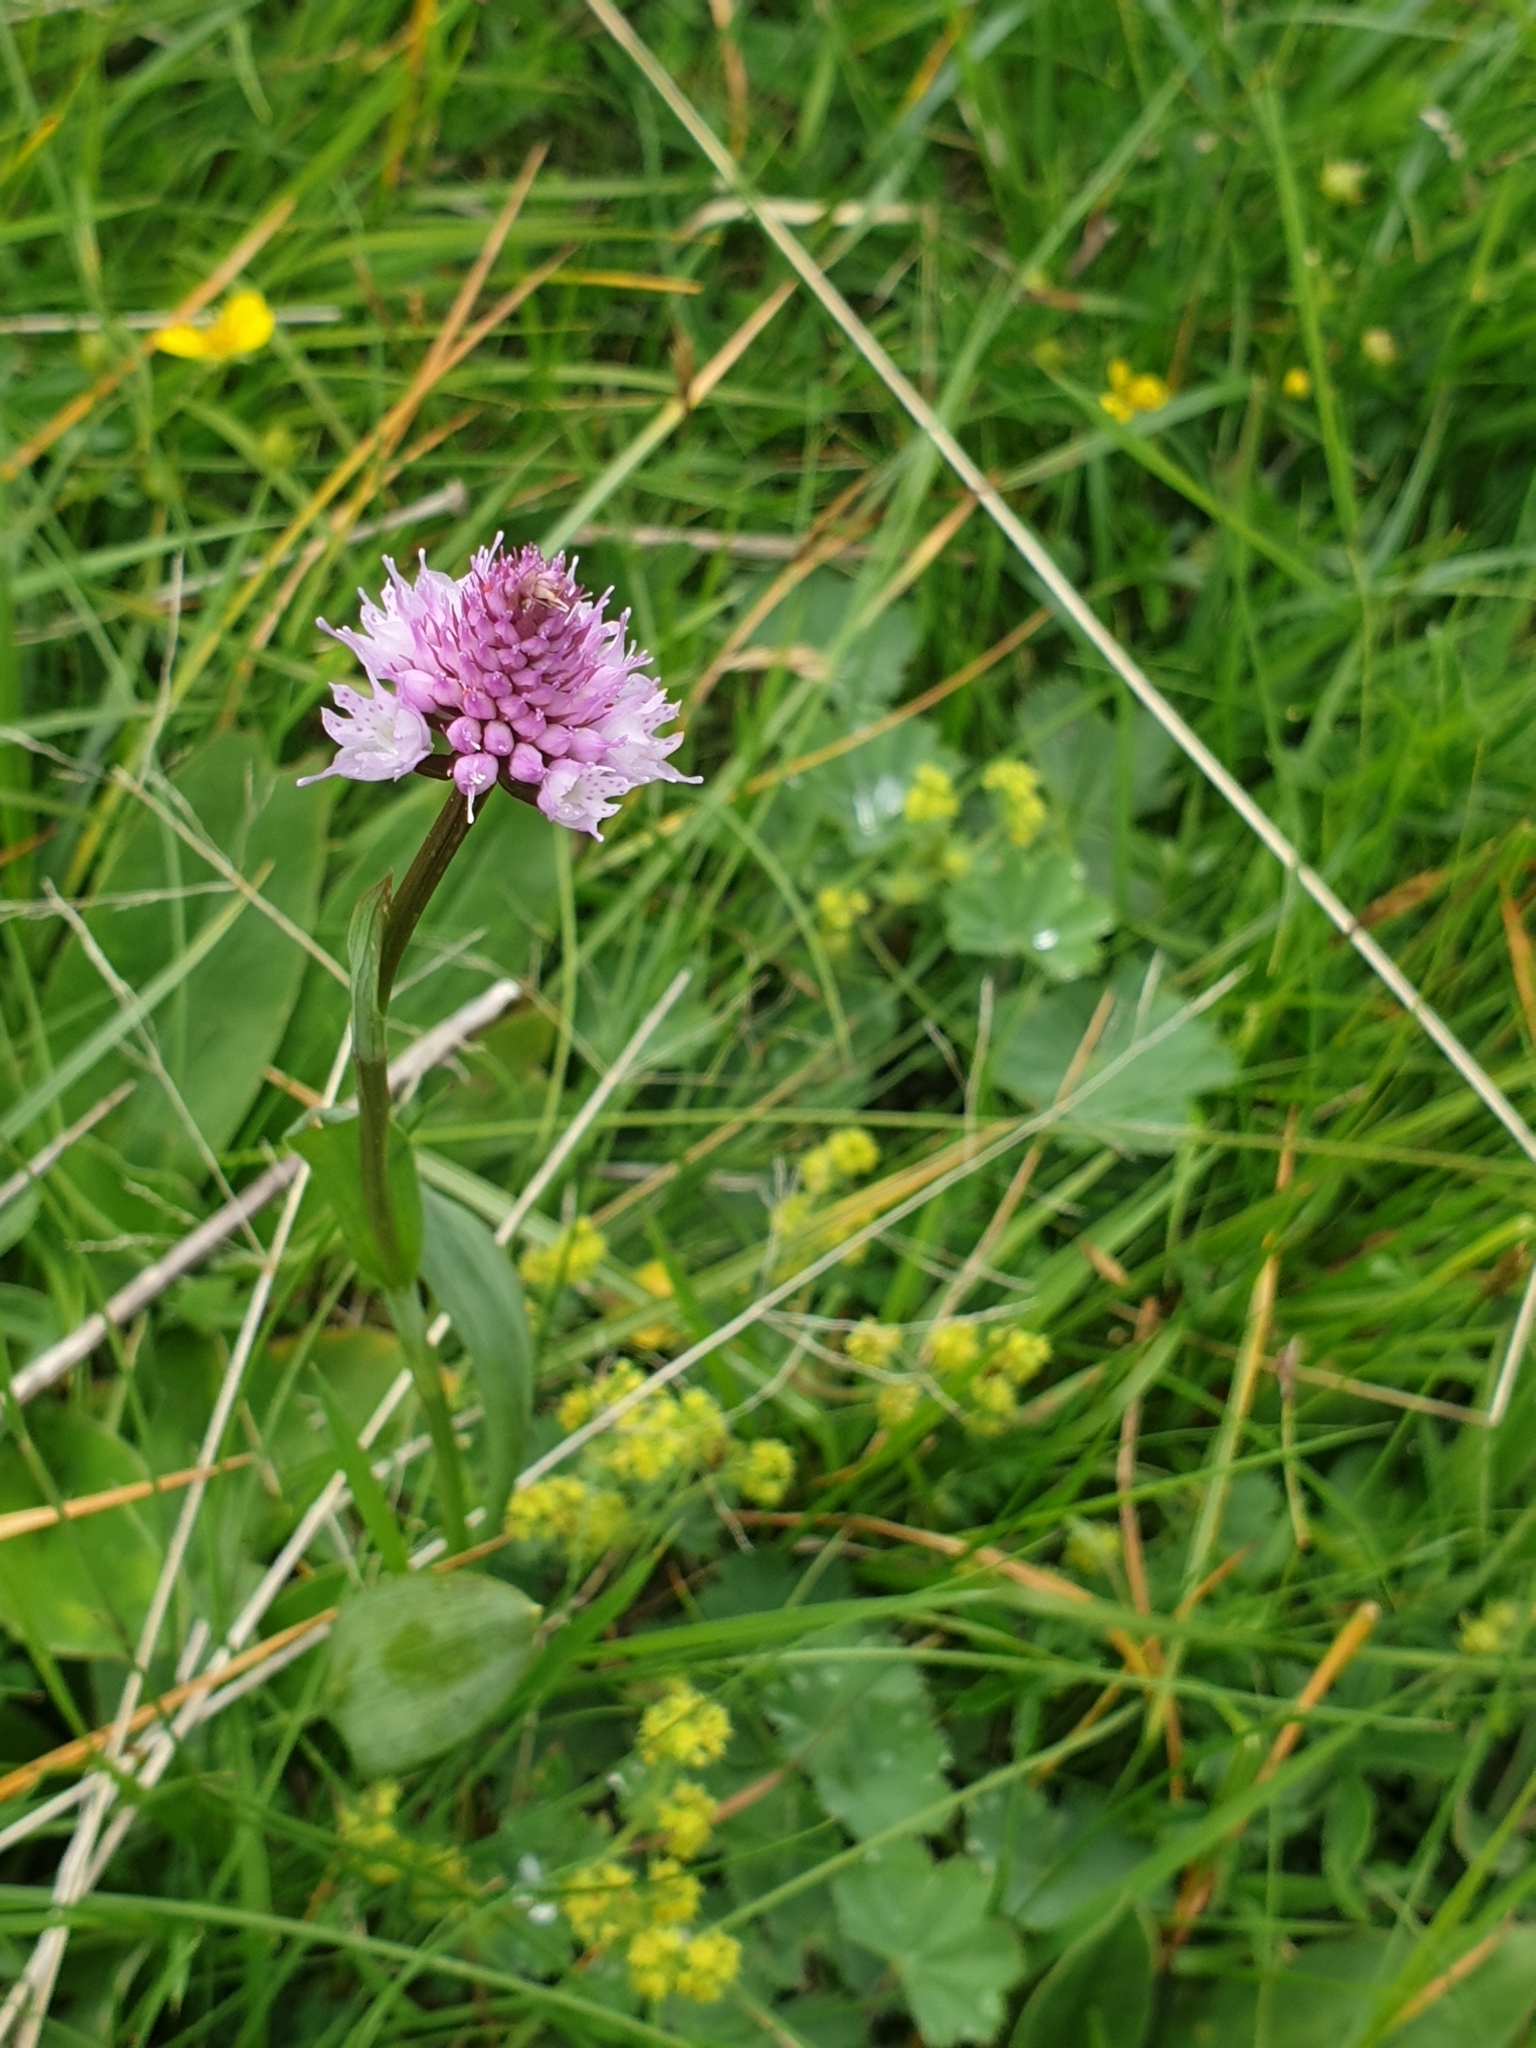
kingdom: Plantae
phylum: Tracheophyta
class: Liliopsida
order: Asparagales
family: Orchidaceae
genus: Traunsteinera
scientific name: Traunsteinera globosa
